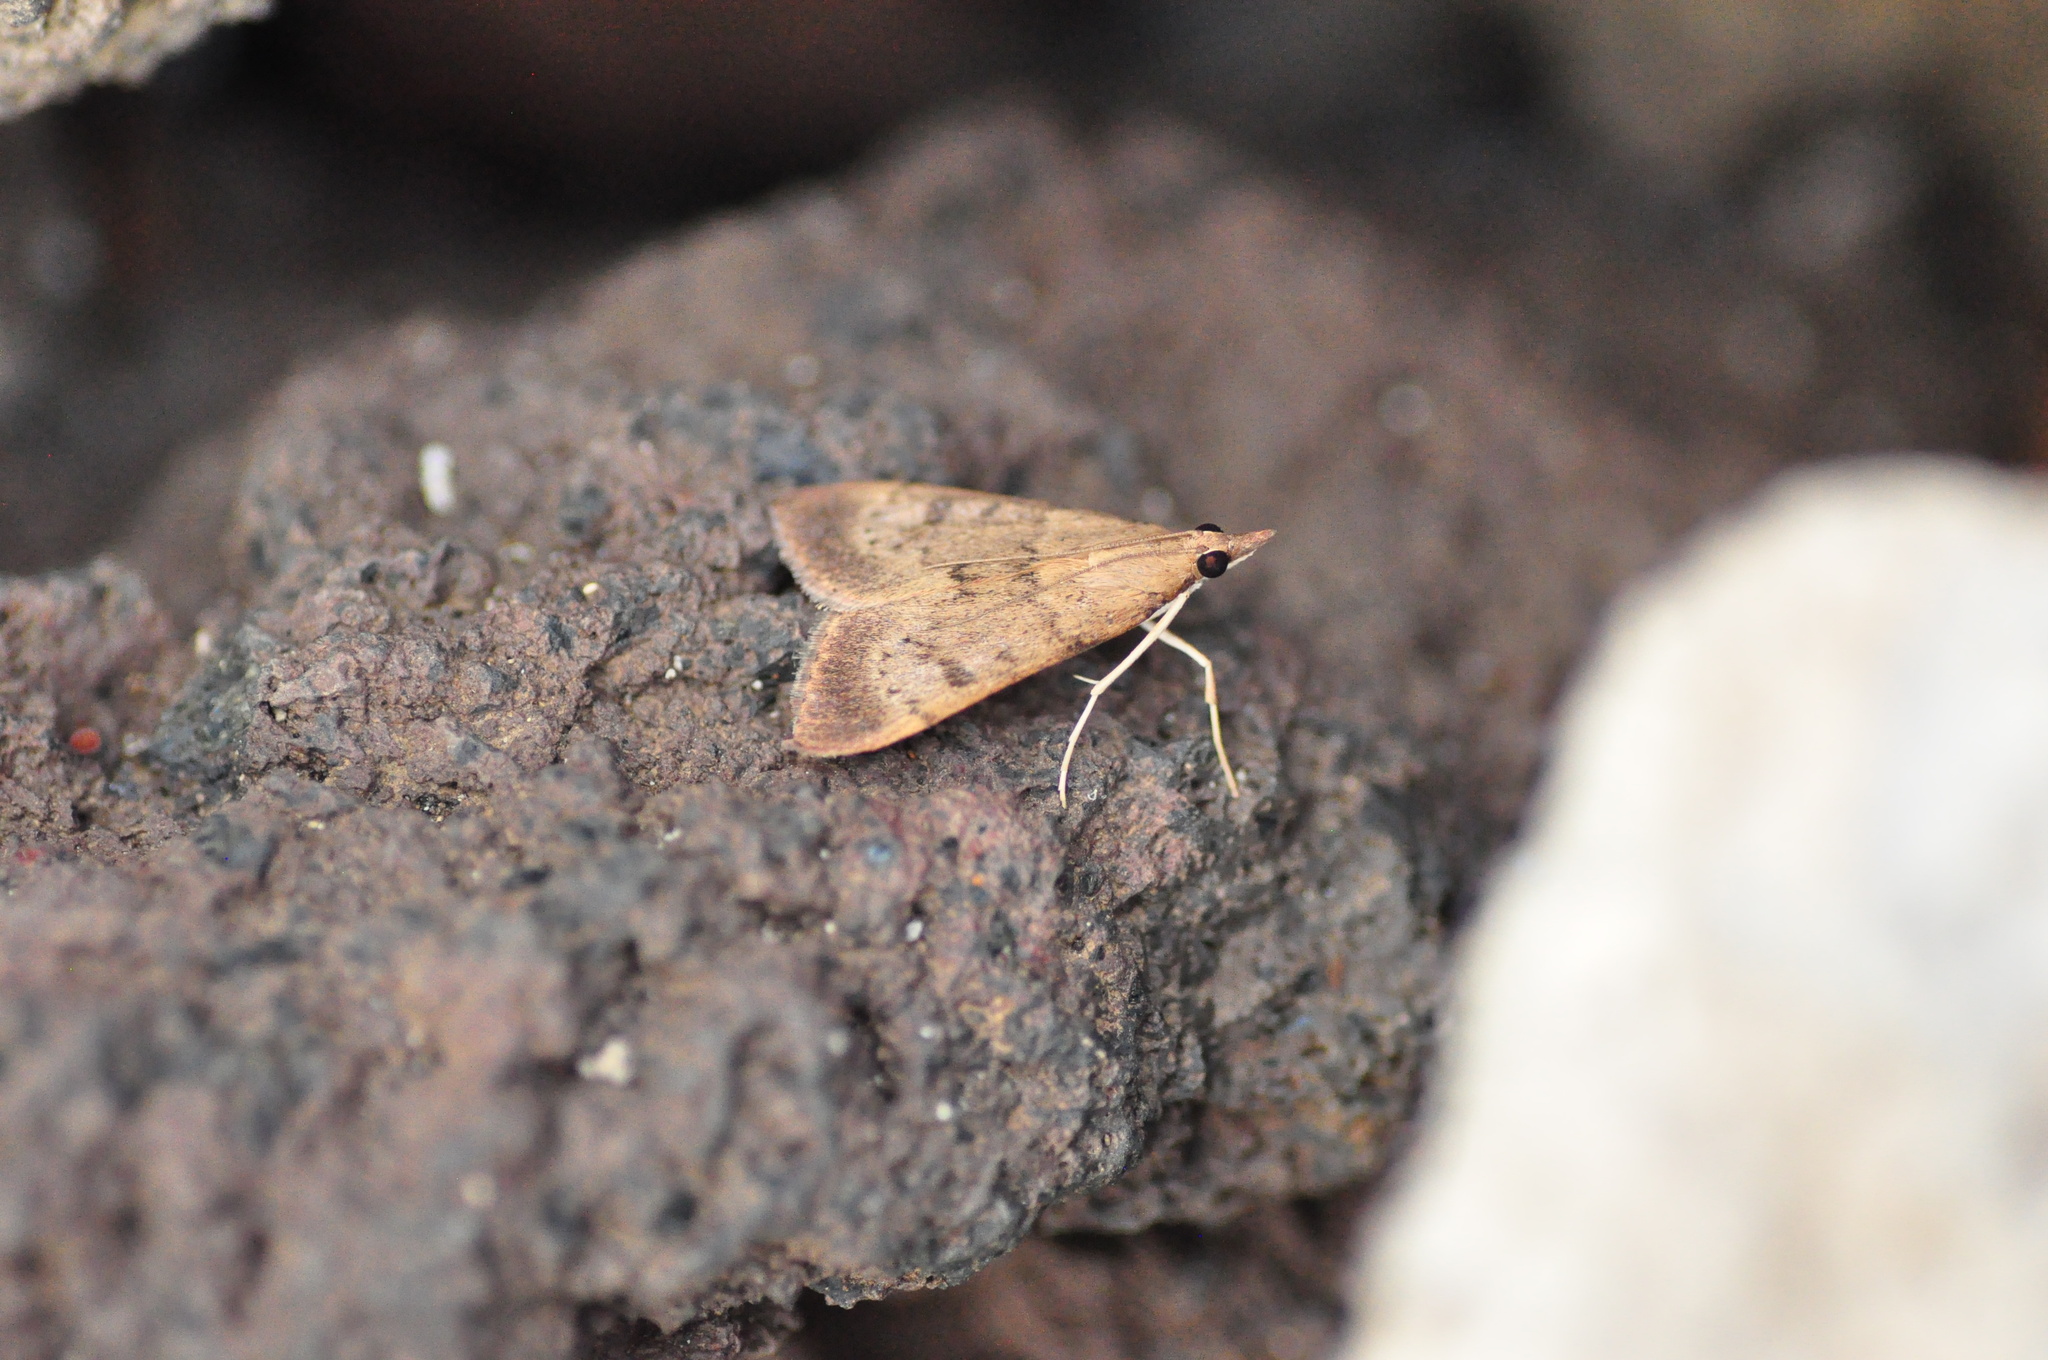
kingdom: Animalia
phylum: Arthropoda
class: Insecta
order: Lepidoptera
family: Crambidae
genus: Uresiphita
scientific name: Uresiphita gilvata
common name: Yellow-underwing pearl
